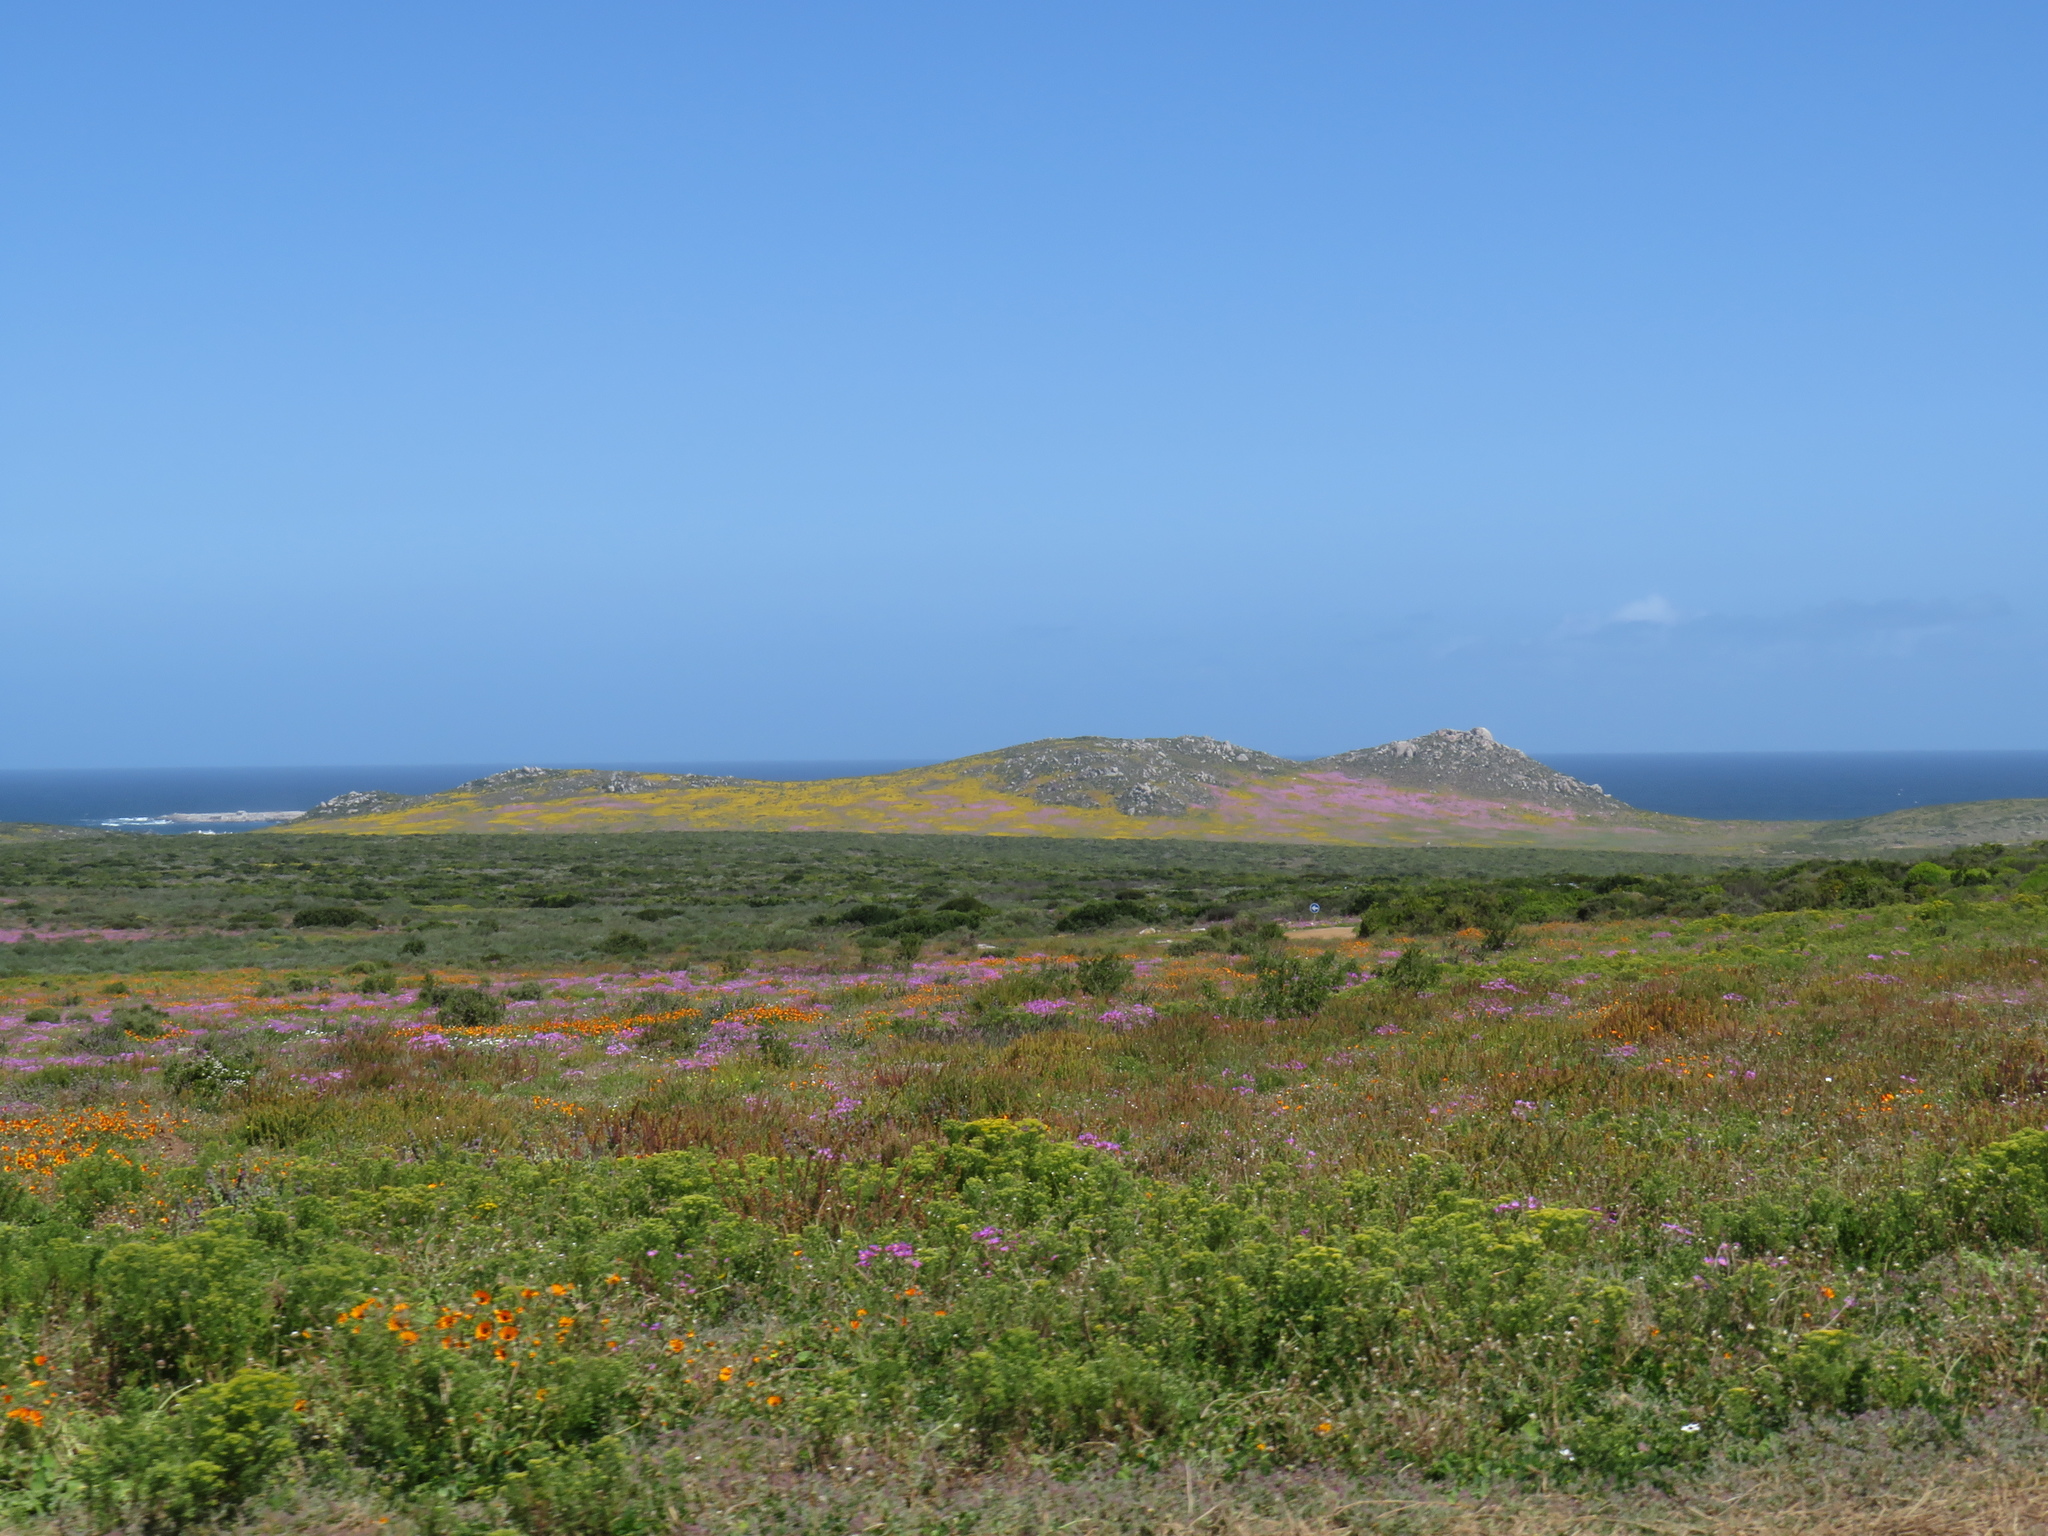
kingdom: Plantae
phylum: Tracheophyta
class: Magnoliopsida
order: Asterales
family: Asteraceae
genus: Arctotis
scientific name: Arctotis hirsuta
